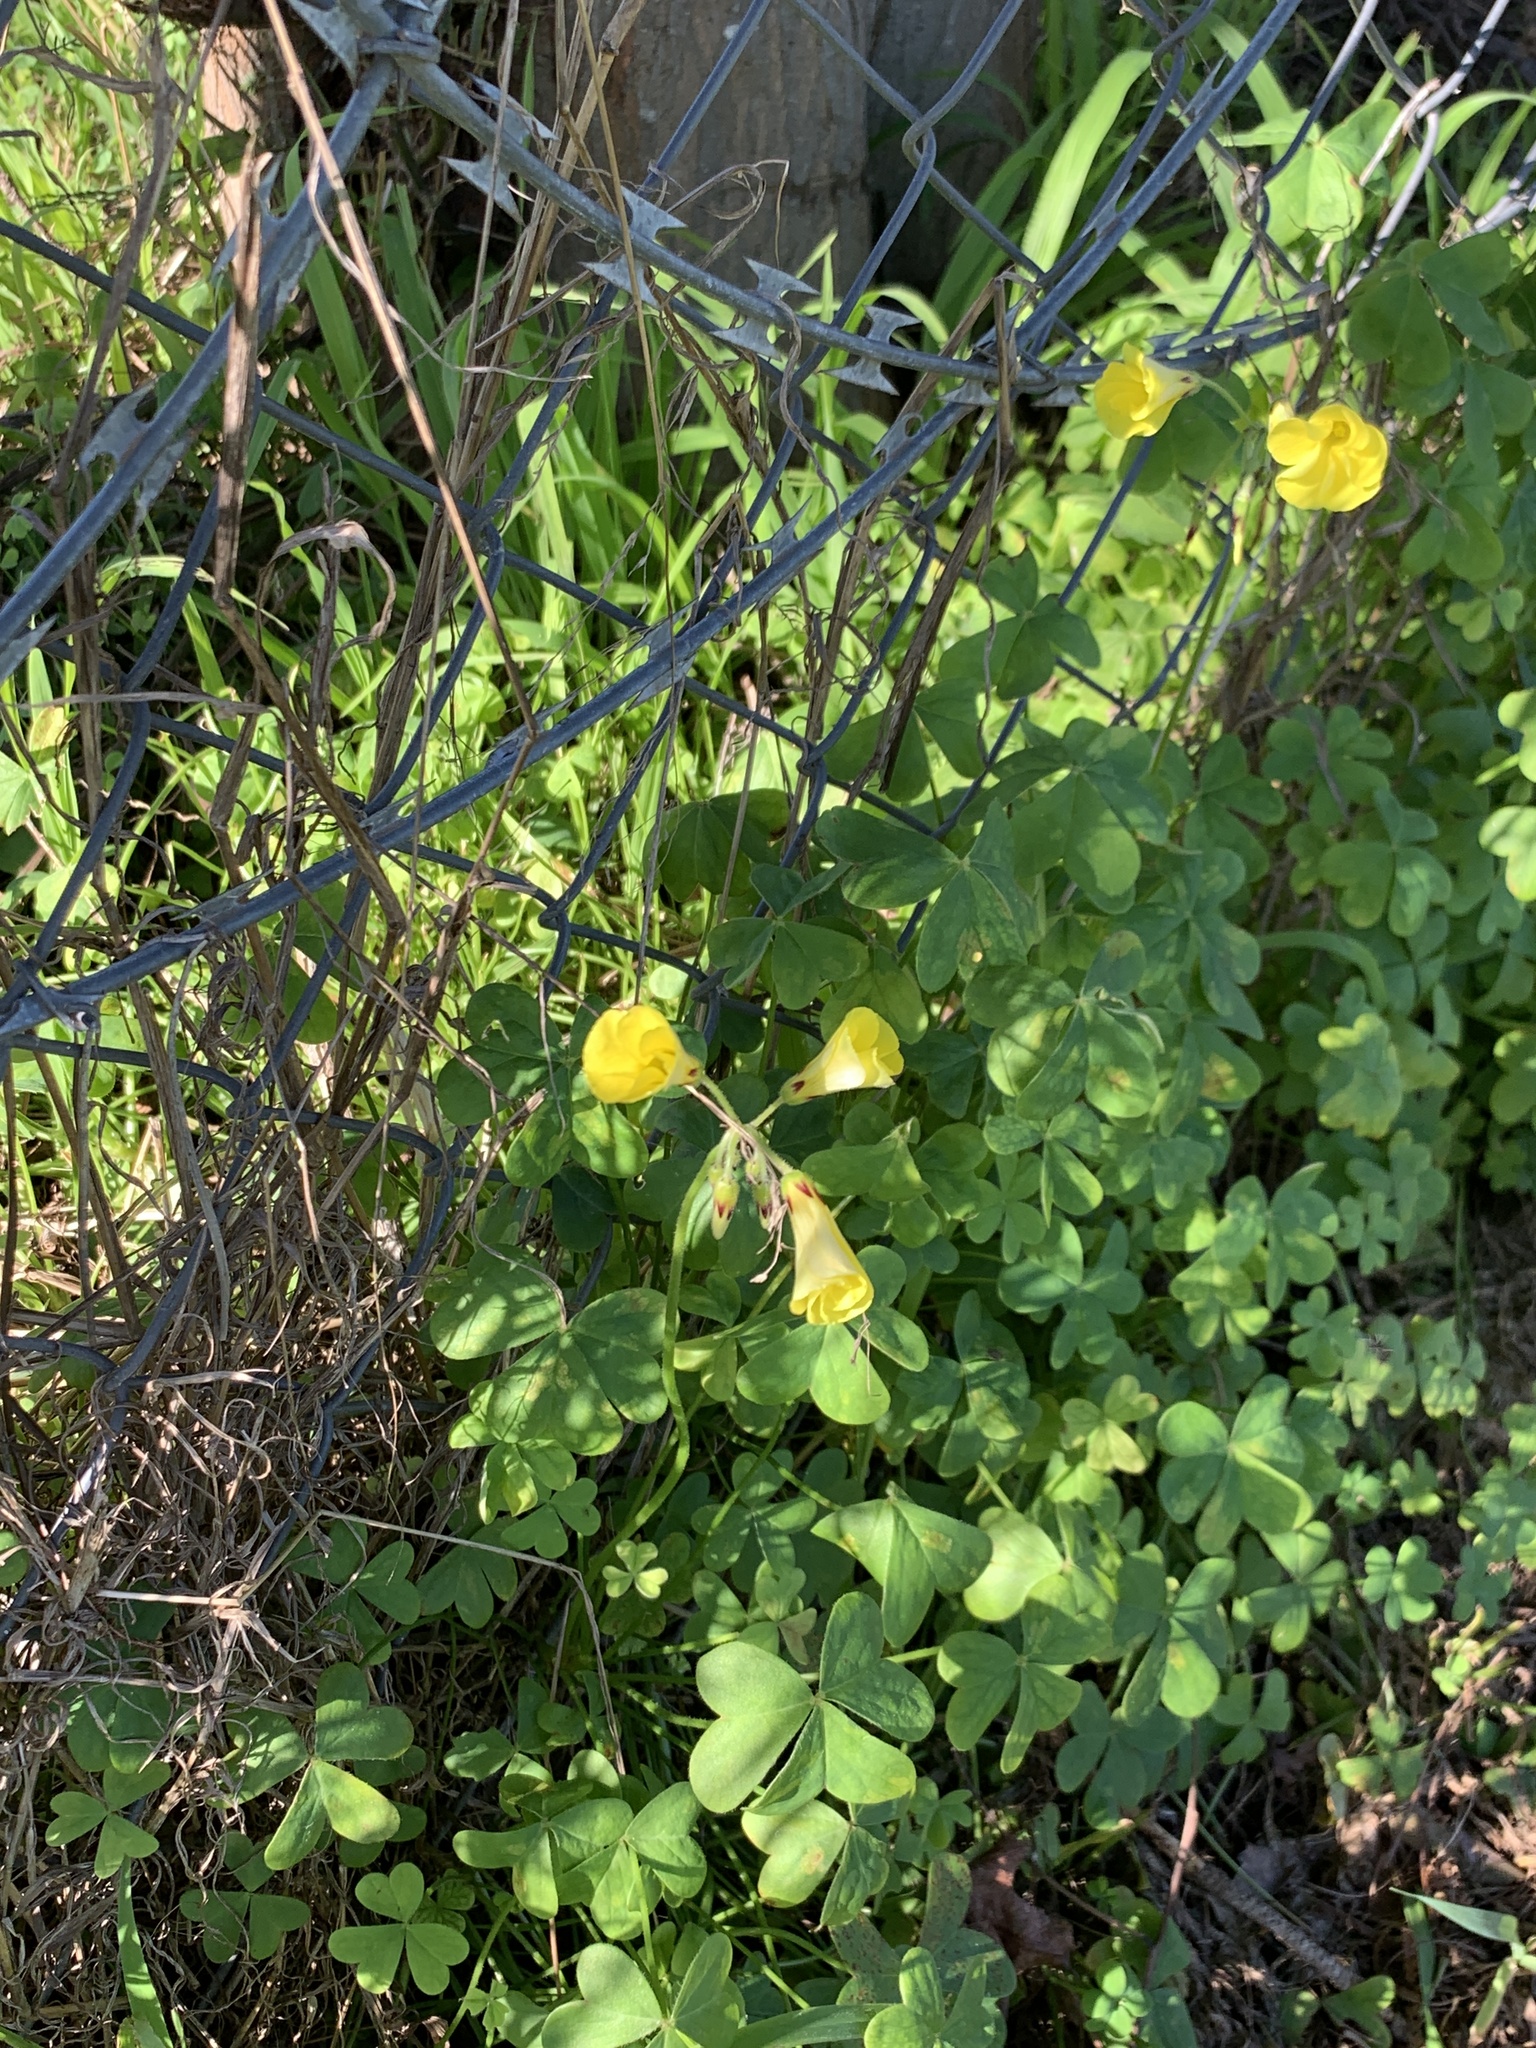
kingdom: Plantae
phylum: Tracheophyta
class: Magnoliopsida
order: Oxalidales
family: Oxalidaceae
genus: Oxalis
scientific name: Oxalis pes-caprae
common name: Bermuda-buttercup
